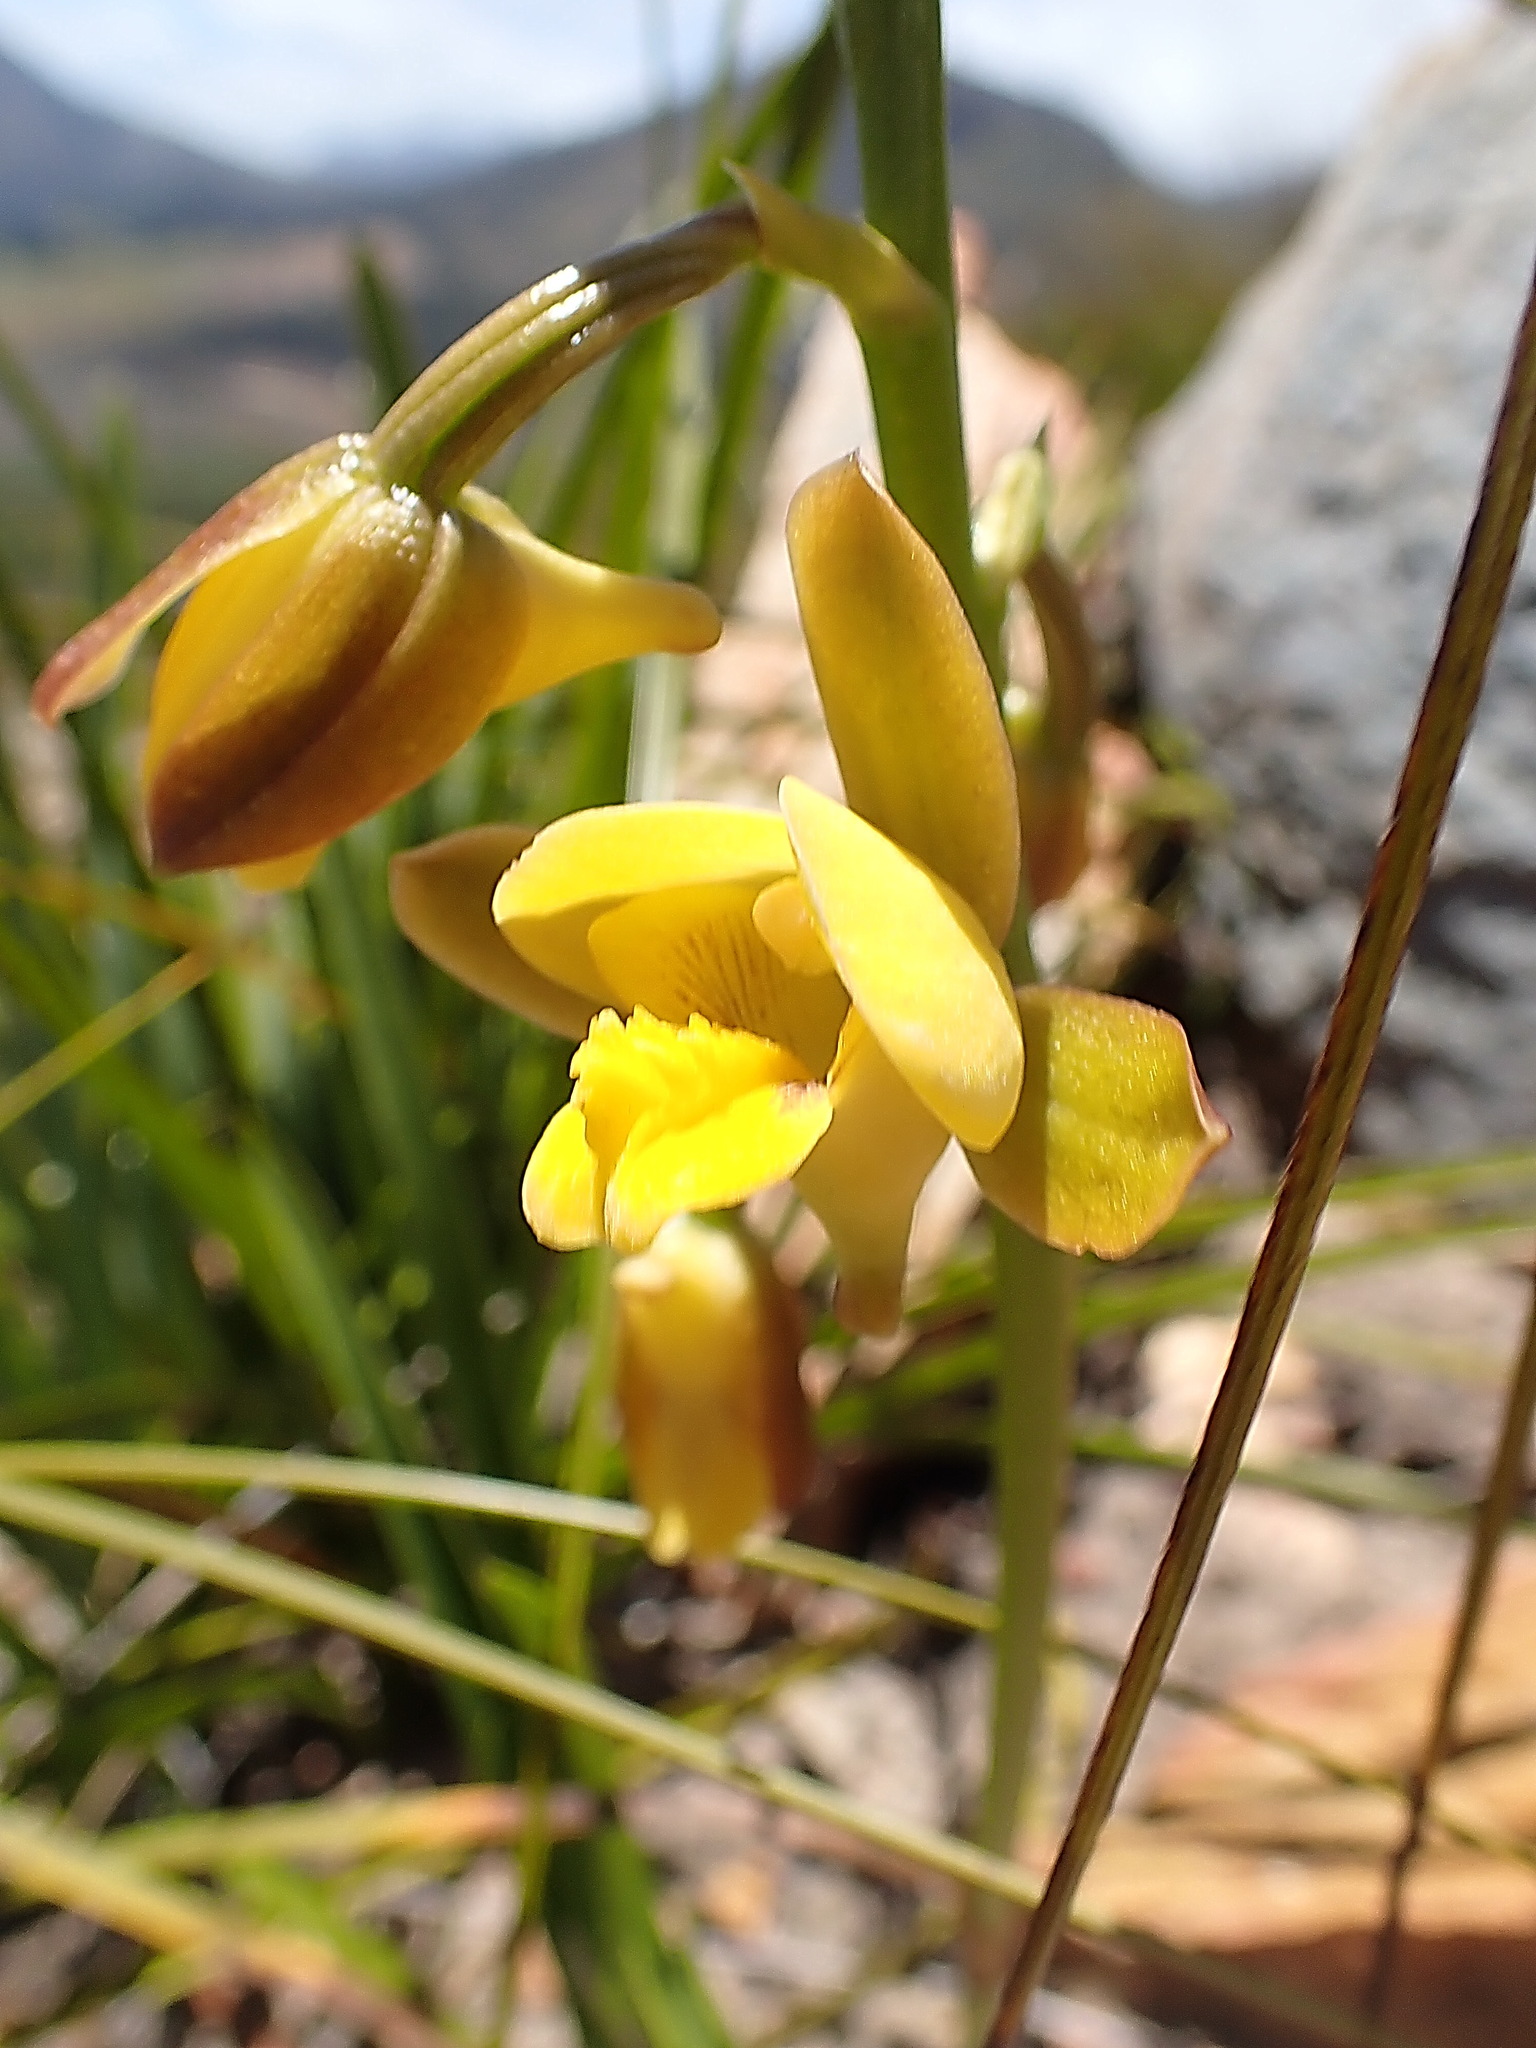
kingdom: Plantae
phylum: Tracheophyta
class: Liliopsida
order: Asparagales
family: Orchidaceae
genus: Eulophia
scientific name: Eulophia platypetala
